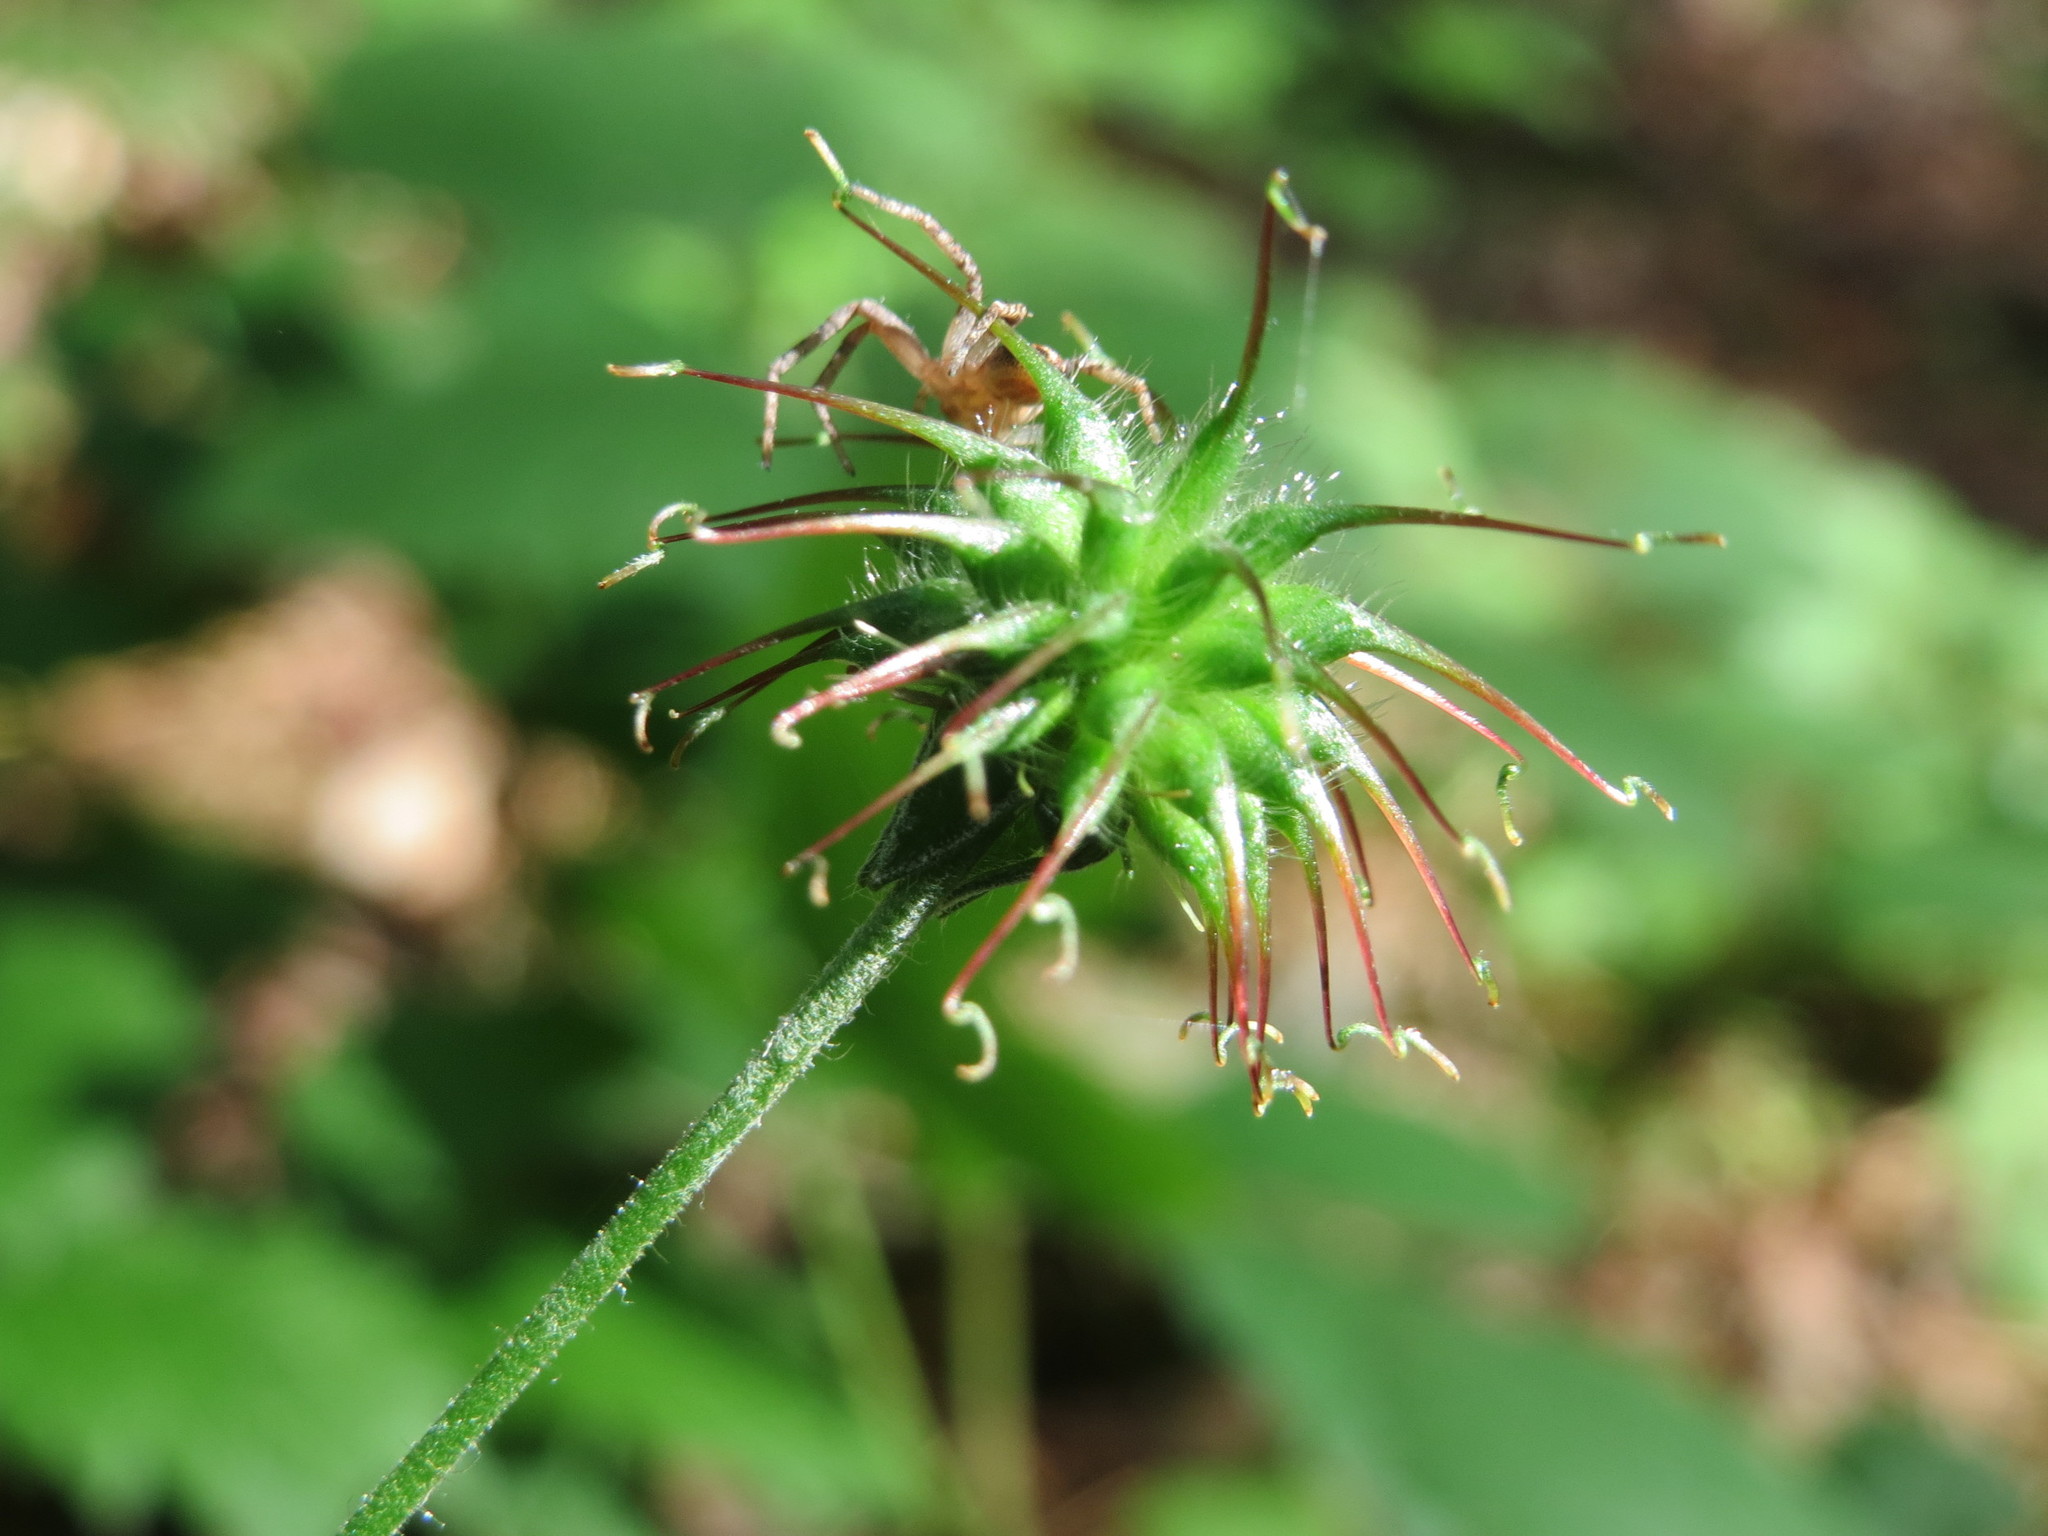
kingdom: Plantae
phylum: Tracheophyta
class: Magnoliopsida
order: Rosales
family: Rosaceae
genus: Geum
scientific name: Geum urbanum
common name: Wood avens
